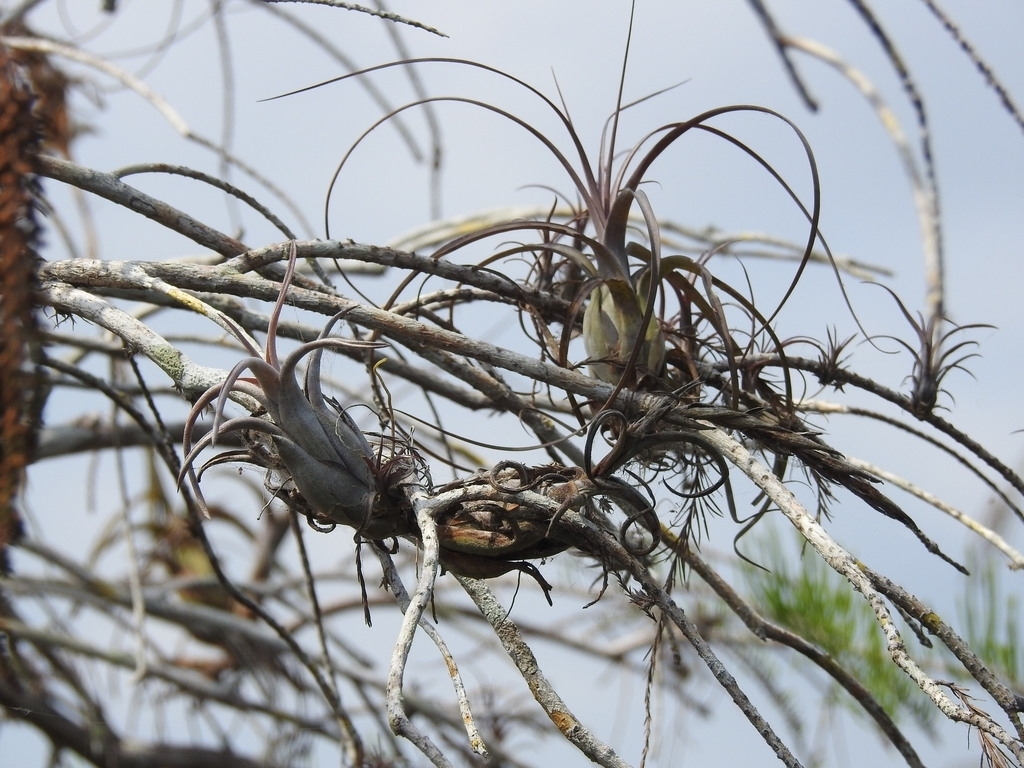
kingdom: Plantae
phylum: Tracheophyta
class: Liliopsida
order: Poales
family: Bromeliaceae
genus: Tillandsia
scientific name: Tillandsia paucifolia
